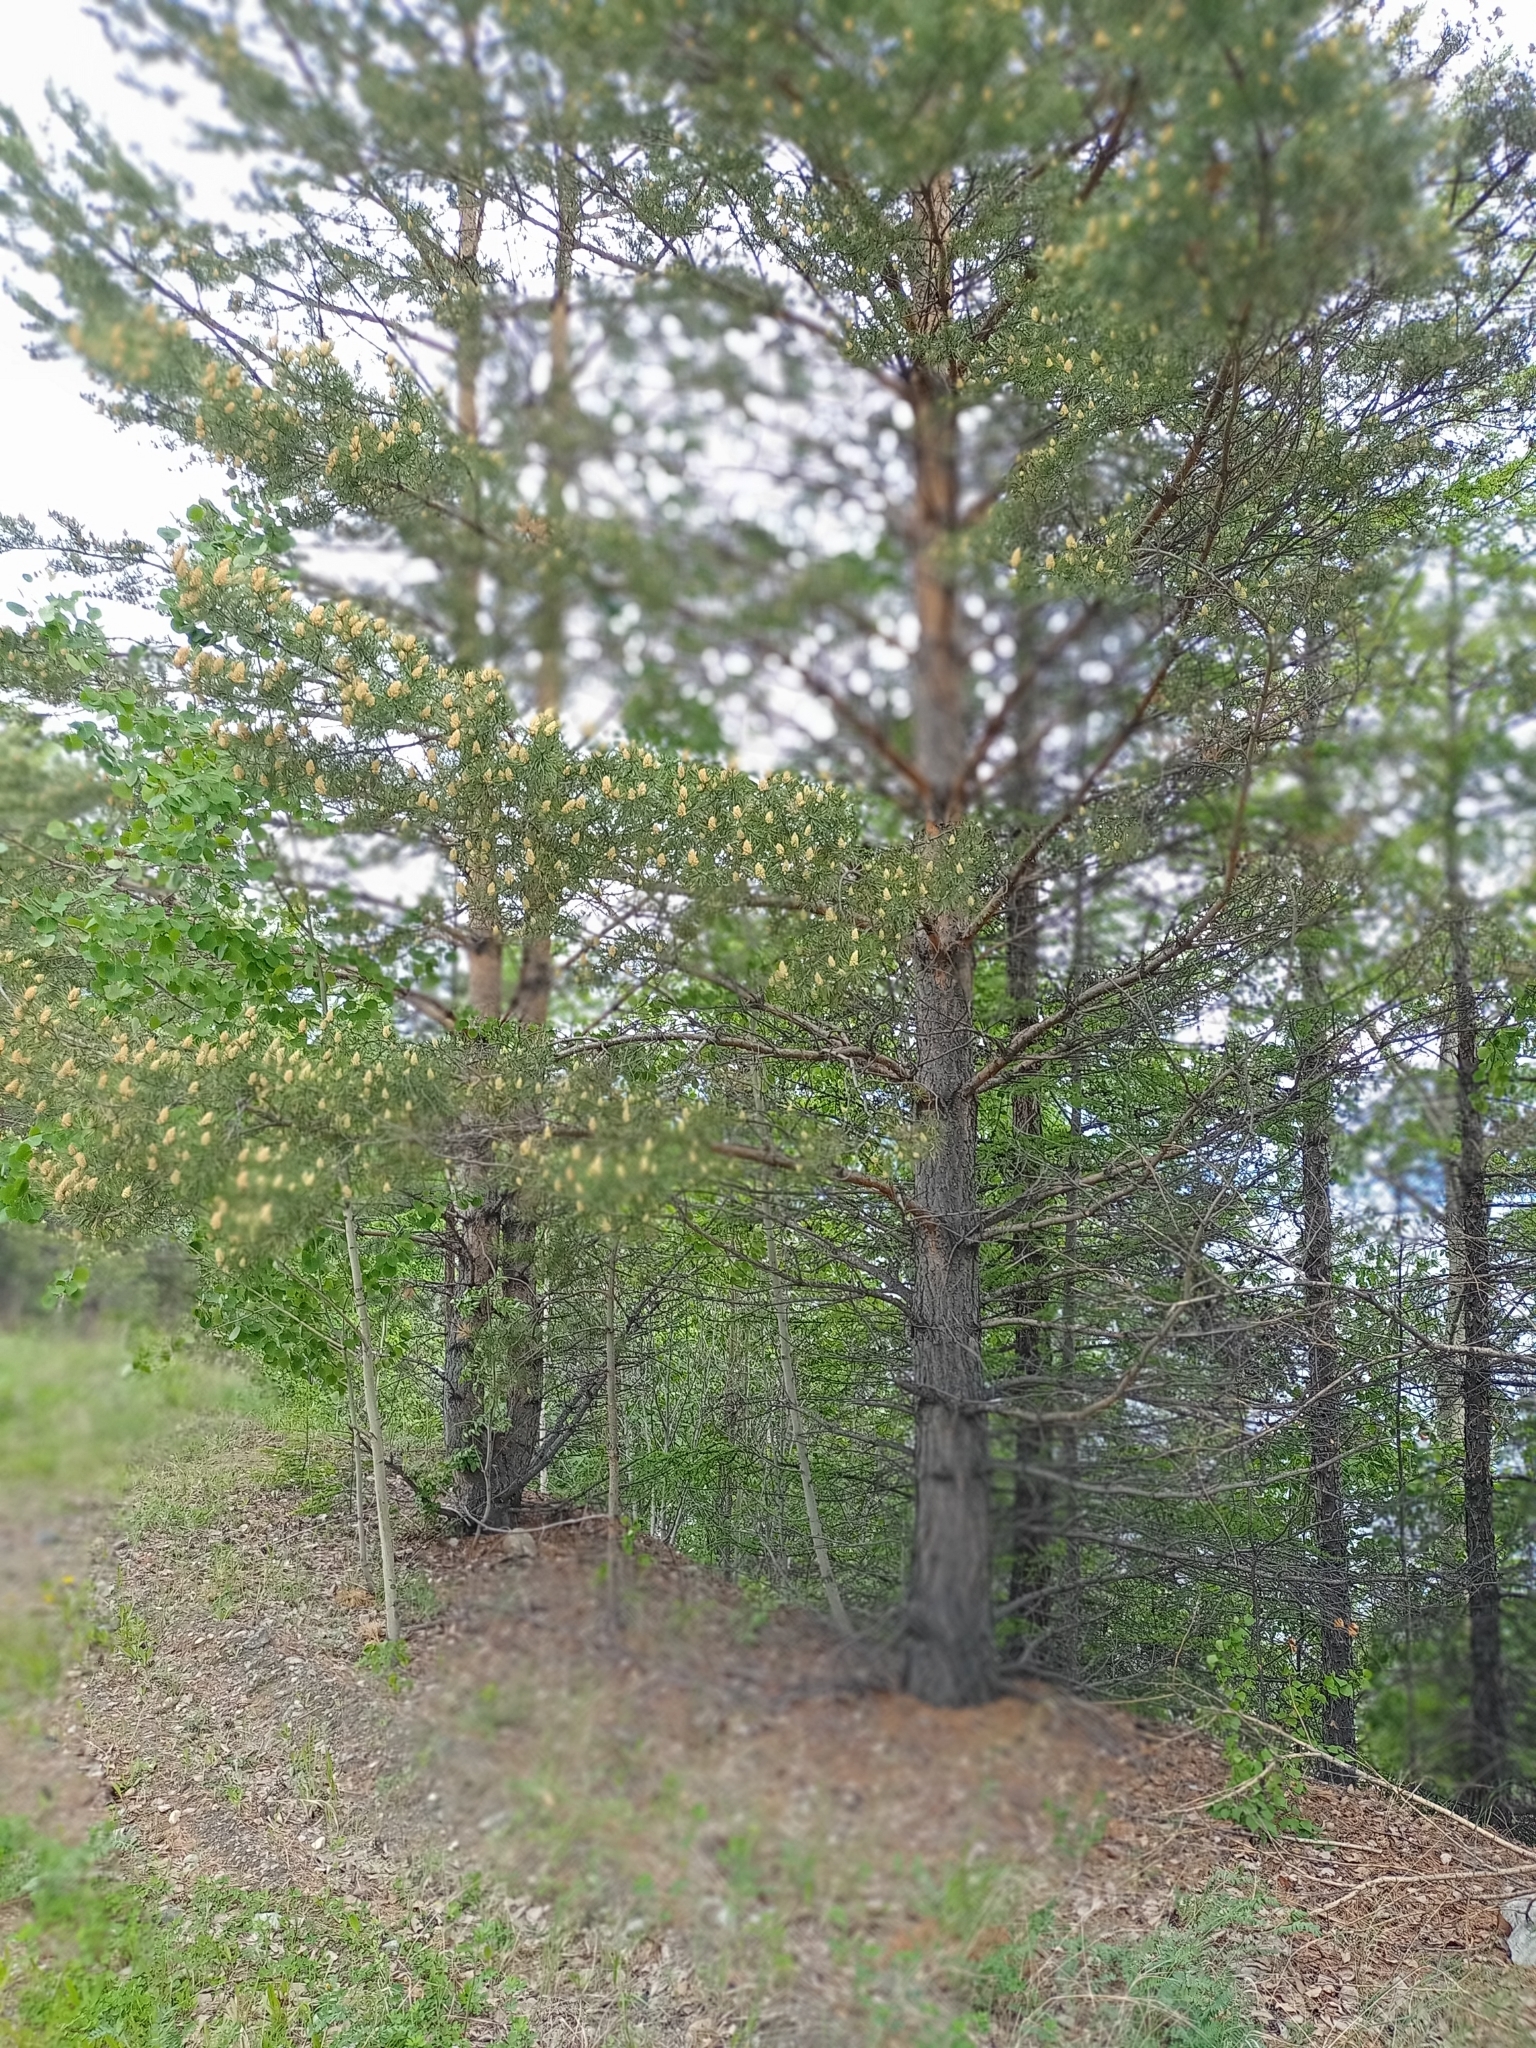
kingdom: Plantae
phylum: Tracheophyta
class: Pinopsida
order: Pinales
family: Pinaceae
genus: Pinus
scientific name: Pinus sylvestris
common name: Scots pine
